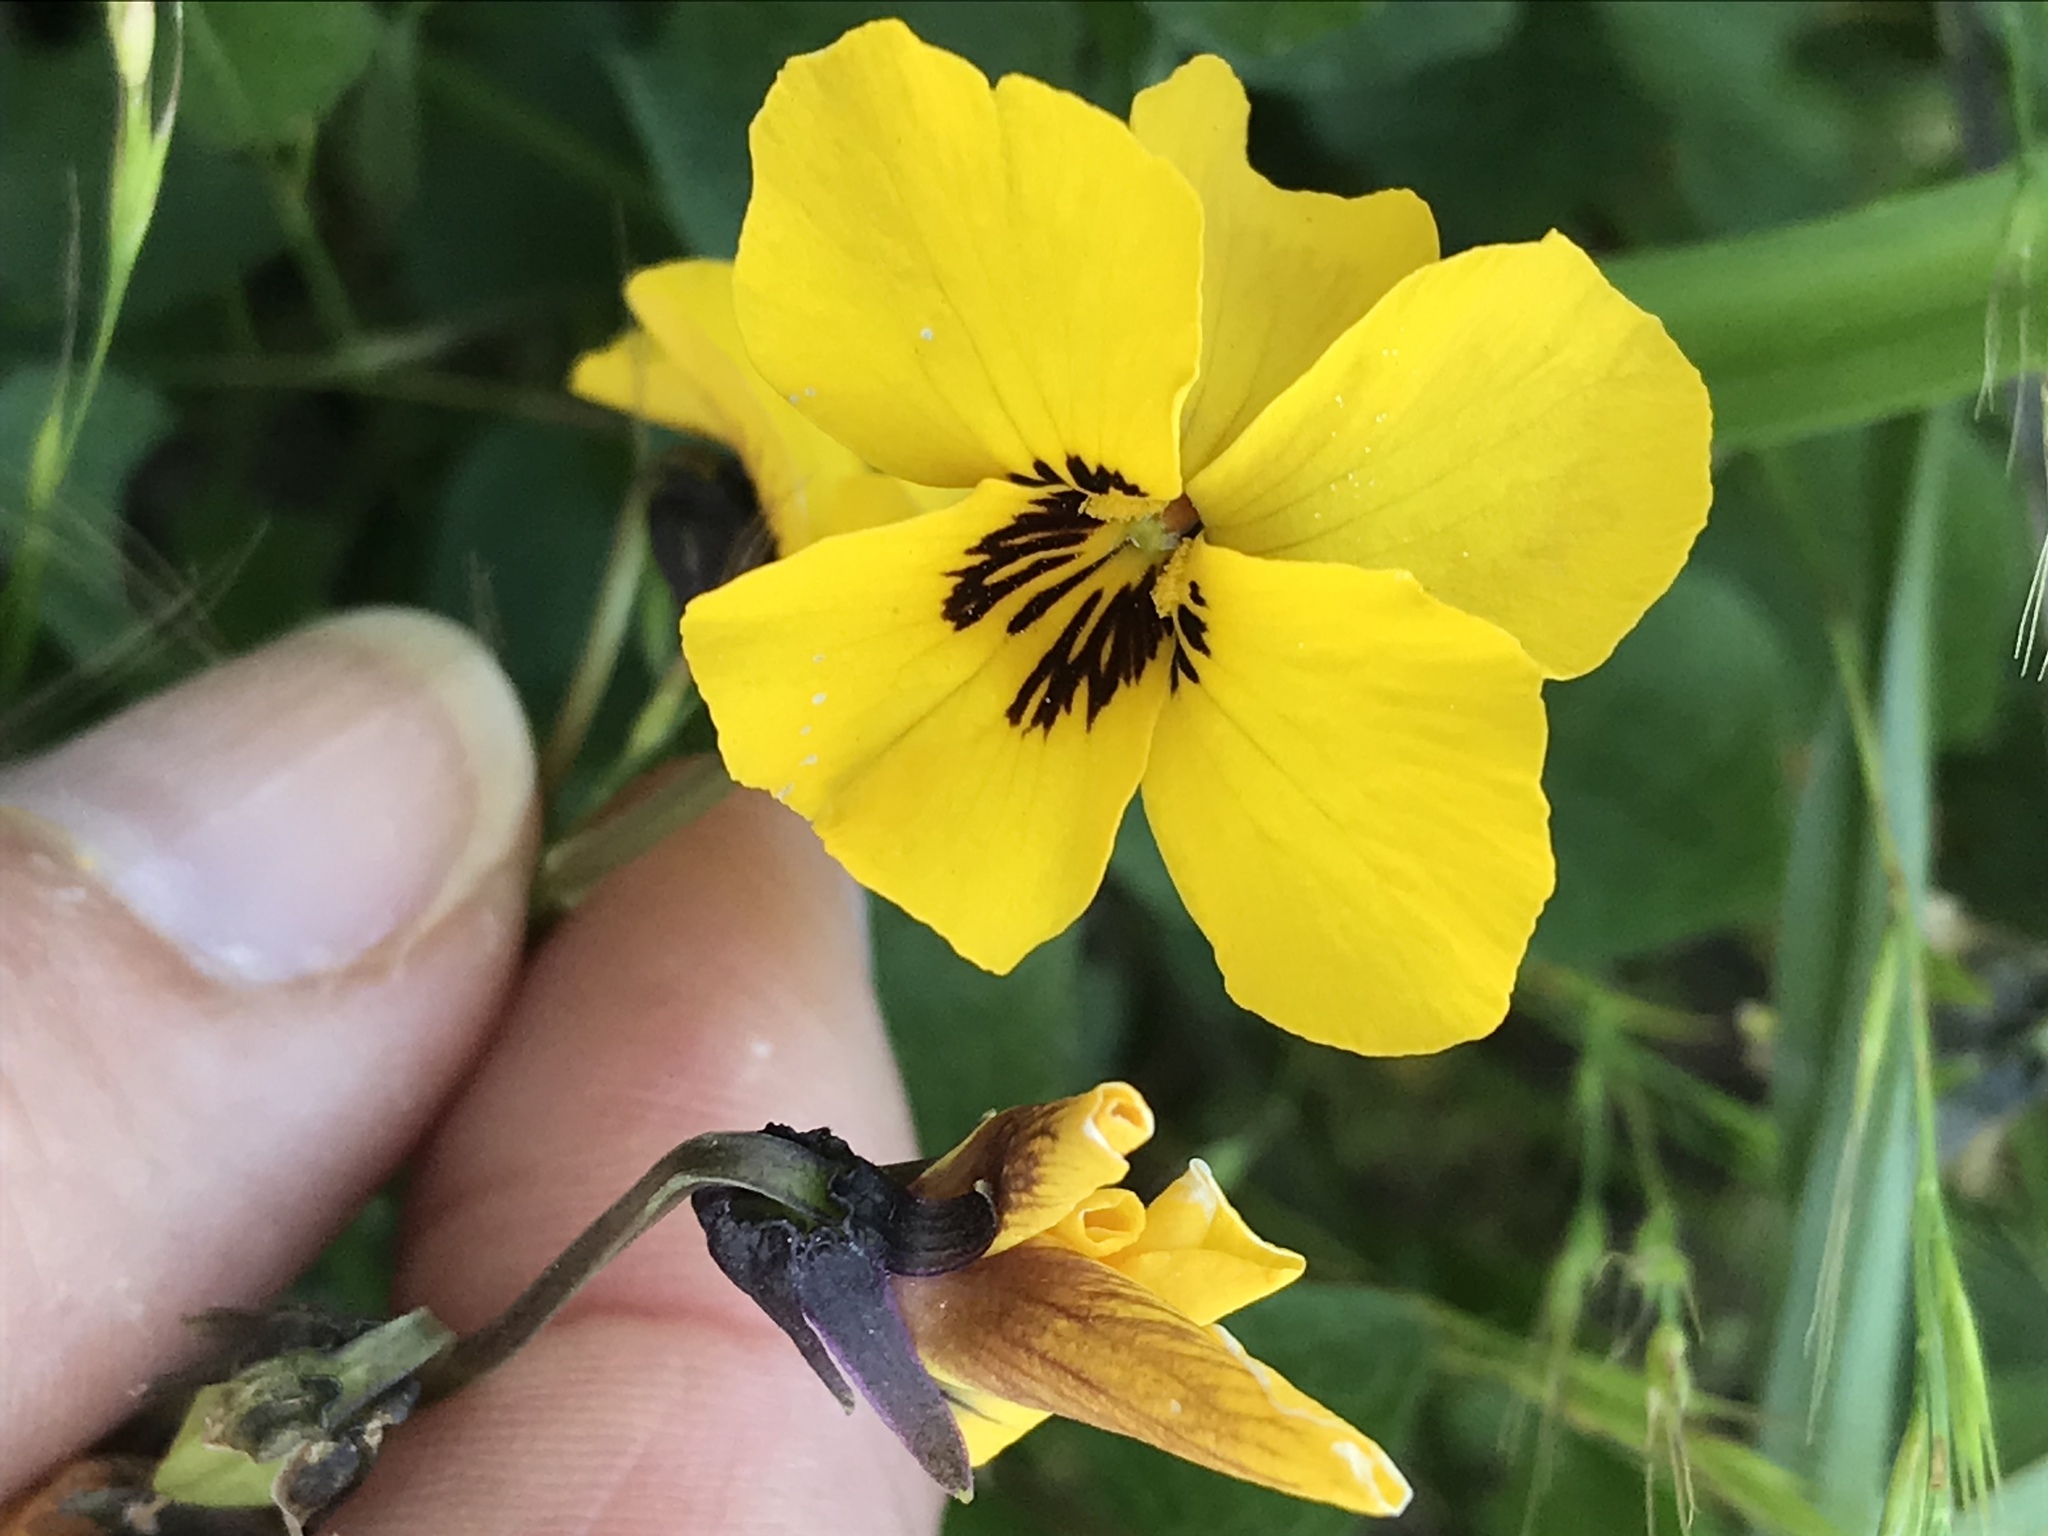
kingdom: Plantae
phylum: Tracheophyta
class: Magnoliopsida
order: Malpighiales
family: Violaceae
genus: Viola
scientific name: Viola pedunculata
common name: California golden violet
